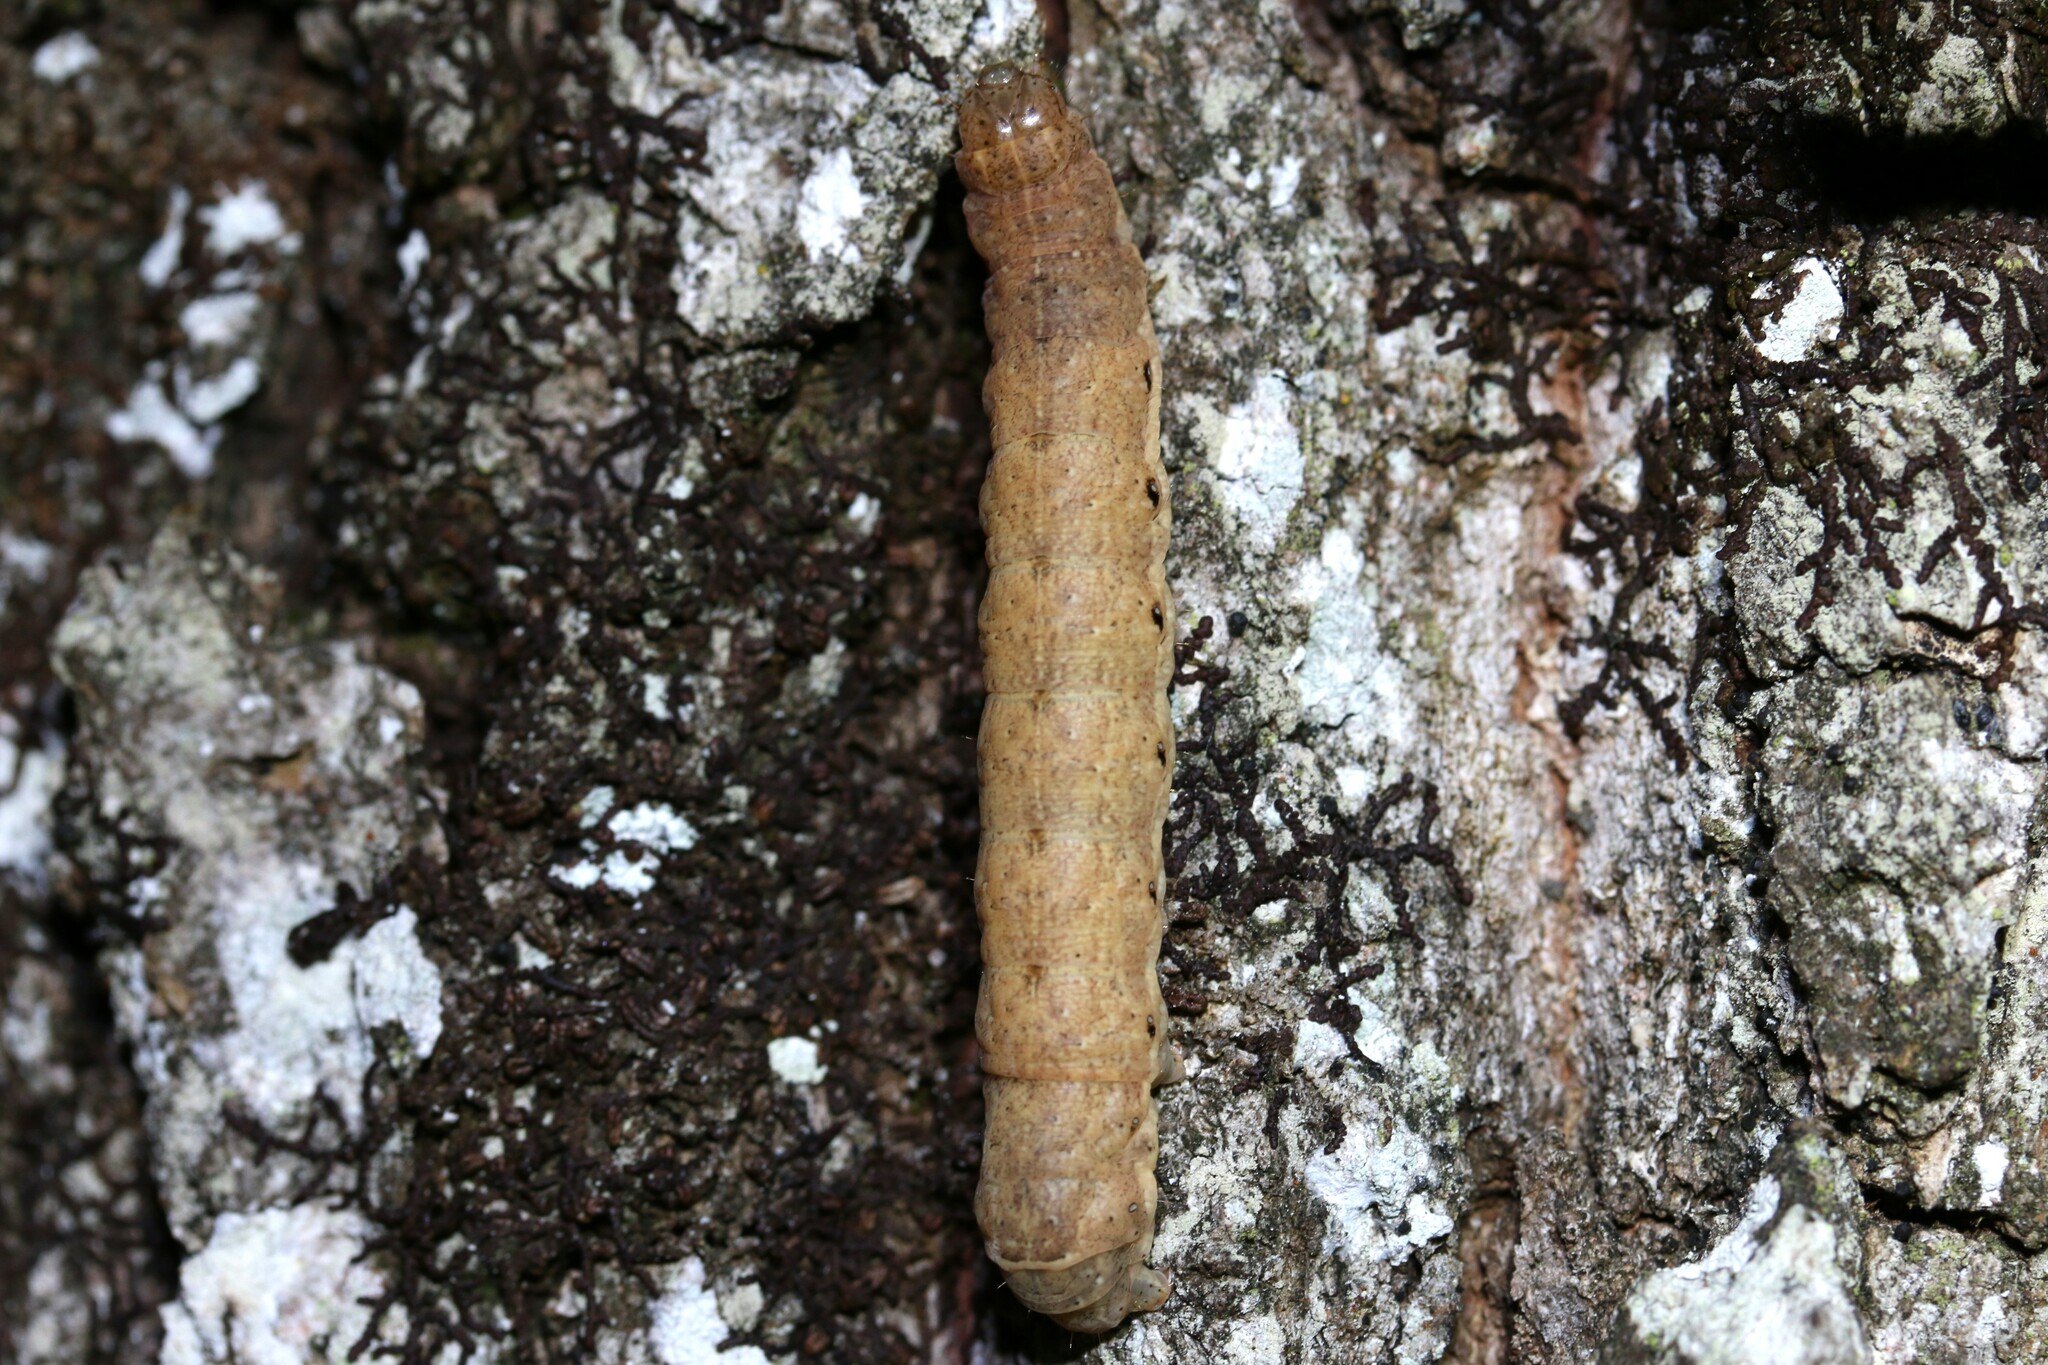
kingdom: Animalia
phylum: Arthropoda
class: Insecta
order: Lepidoptera
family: Noctuidae
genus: Noctua
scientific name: Noctua fimbriata
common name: Broad-bordered yellow underwing
